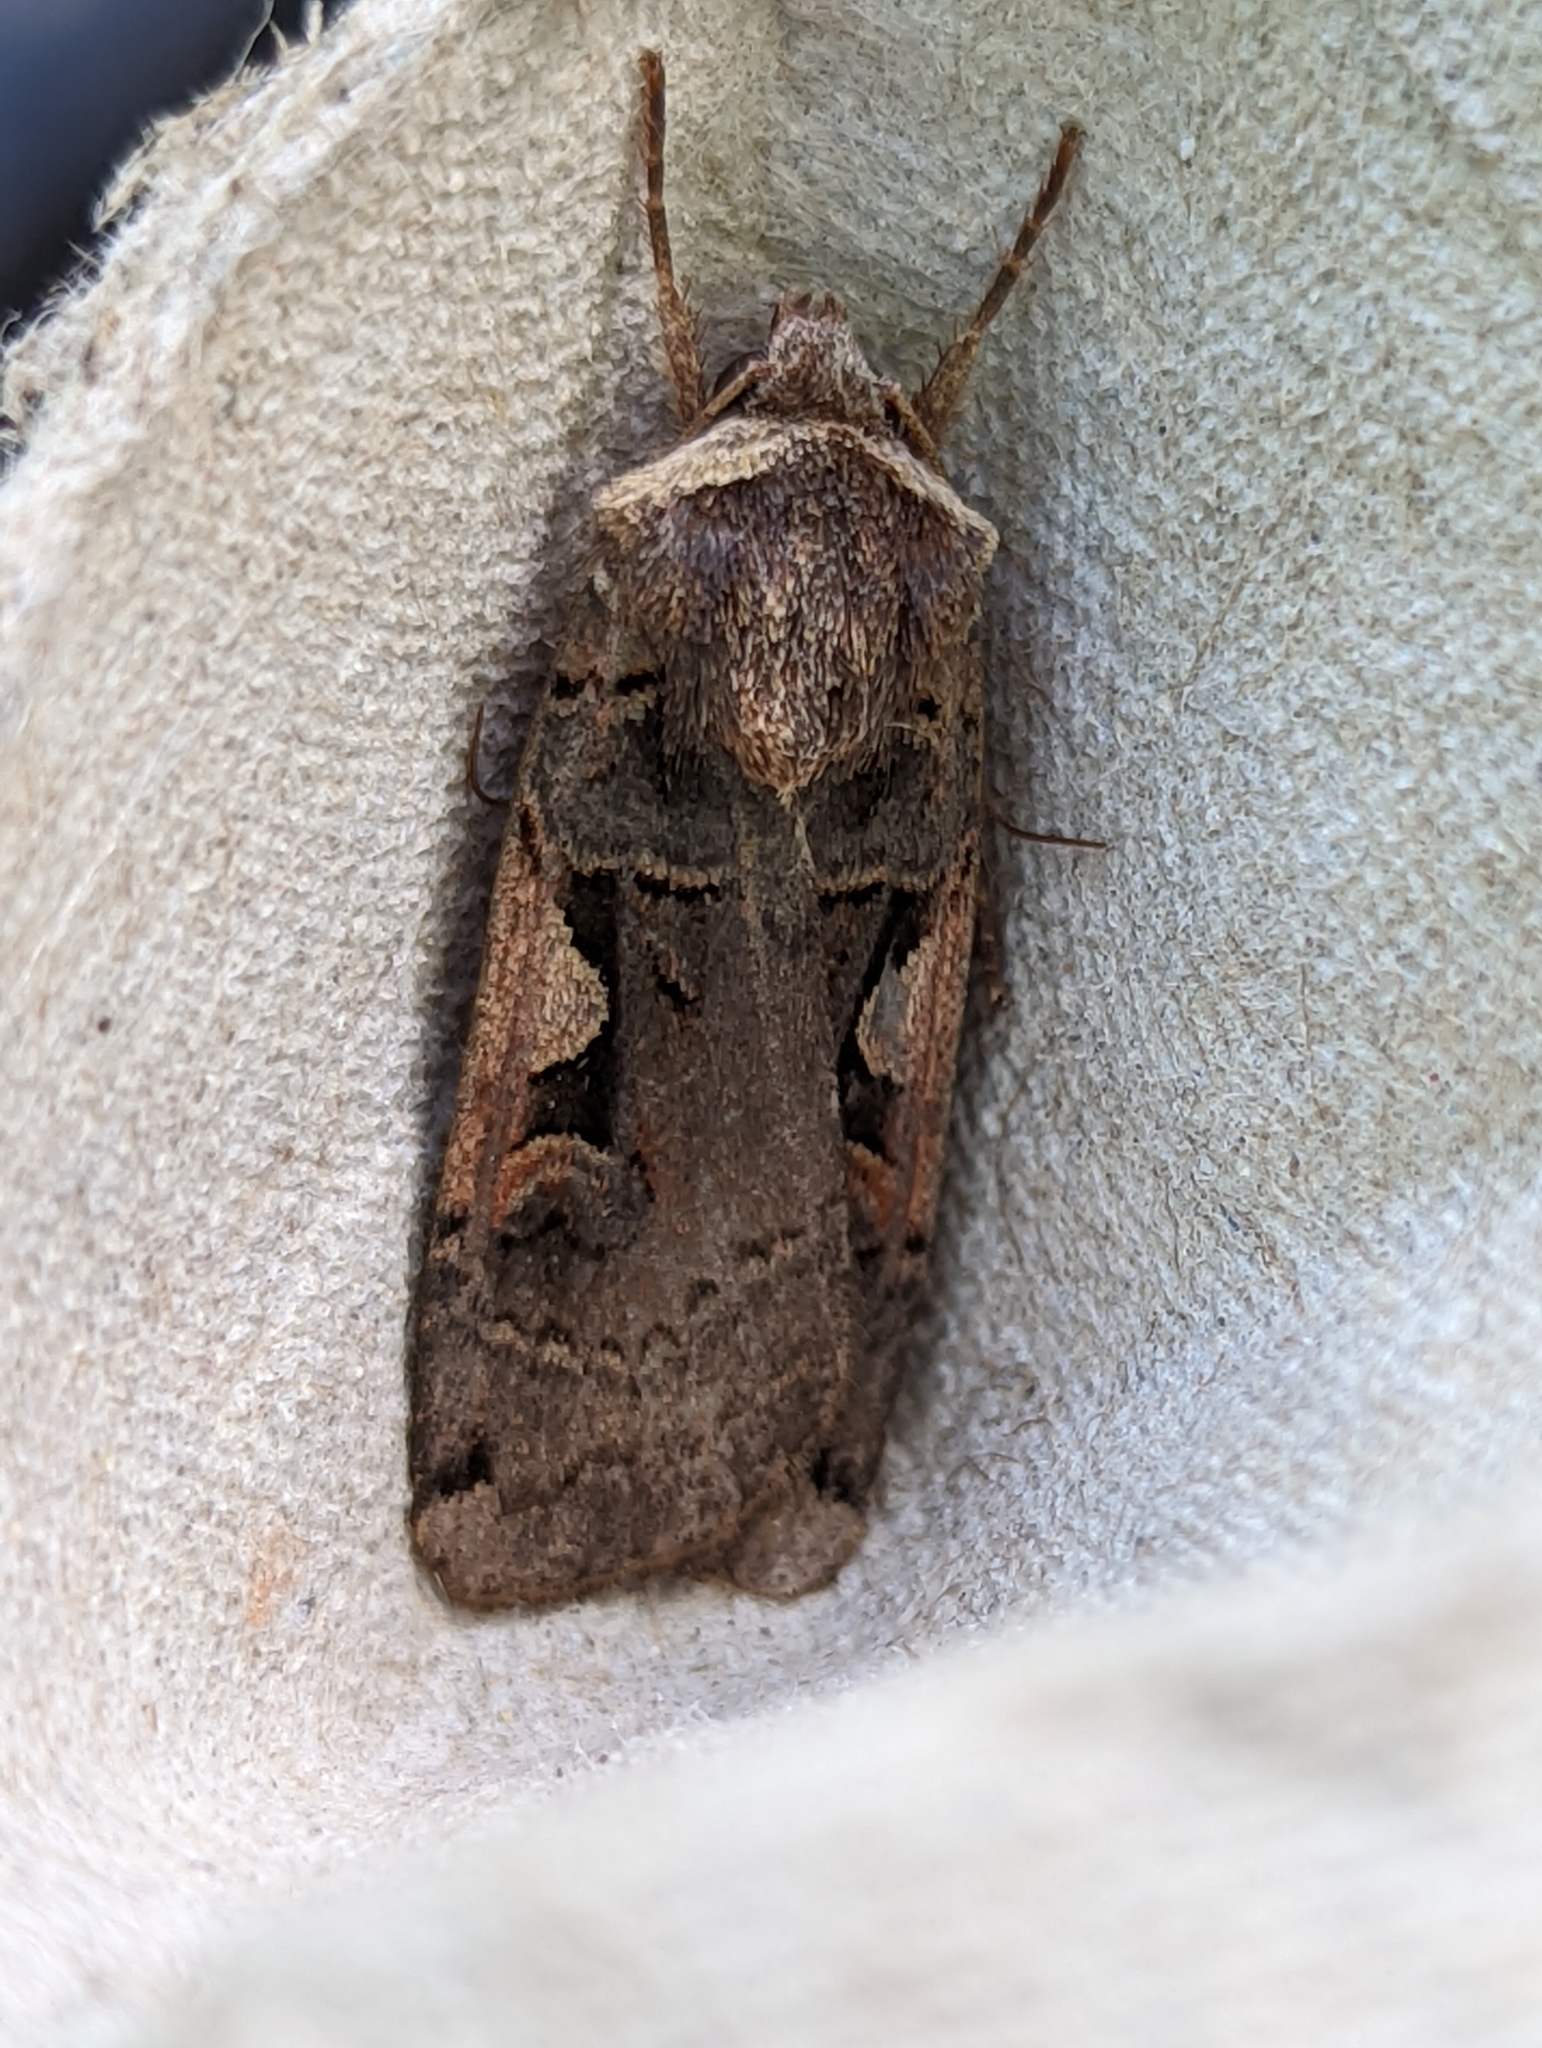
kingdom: Animalia
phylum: Arthropoda
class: Insecta
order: Lepidoptera
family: Noctuidae
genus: Xestia
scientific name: Xestia c-nigrum
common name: Setaceous hebrew character
